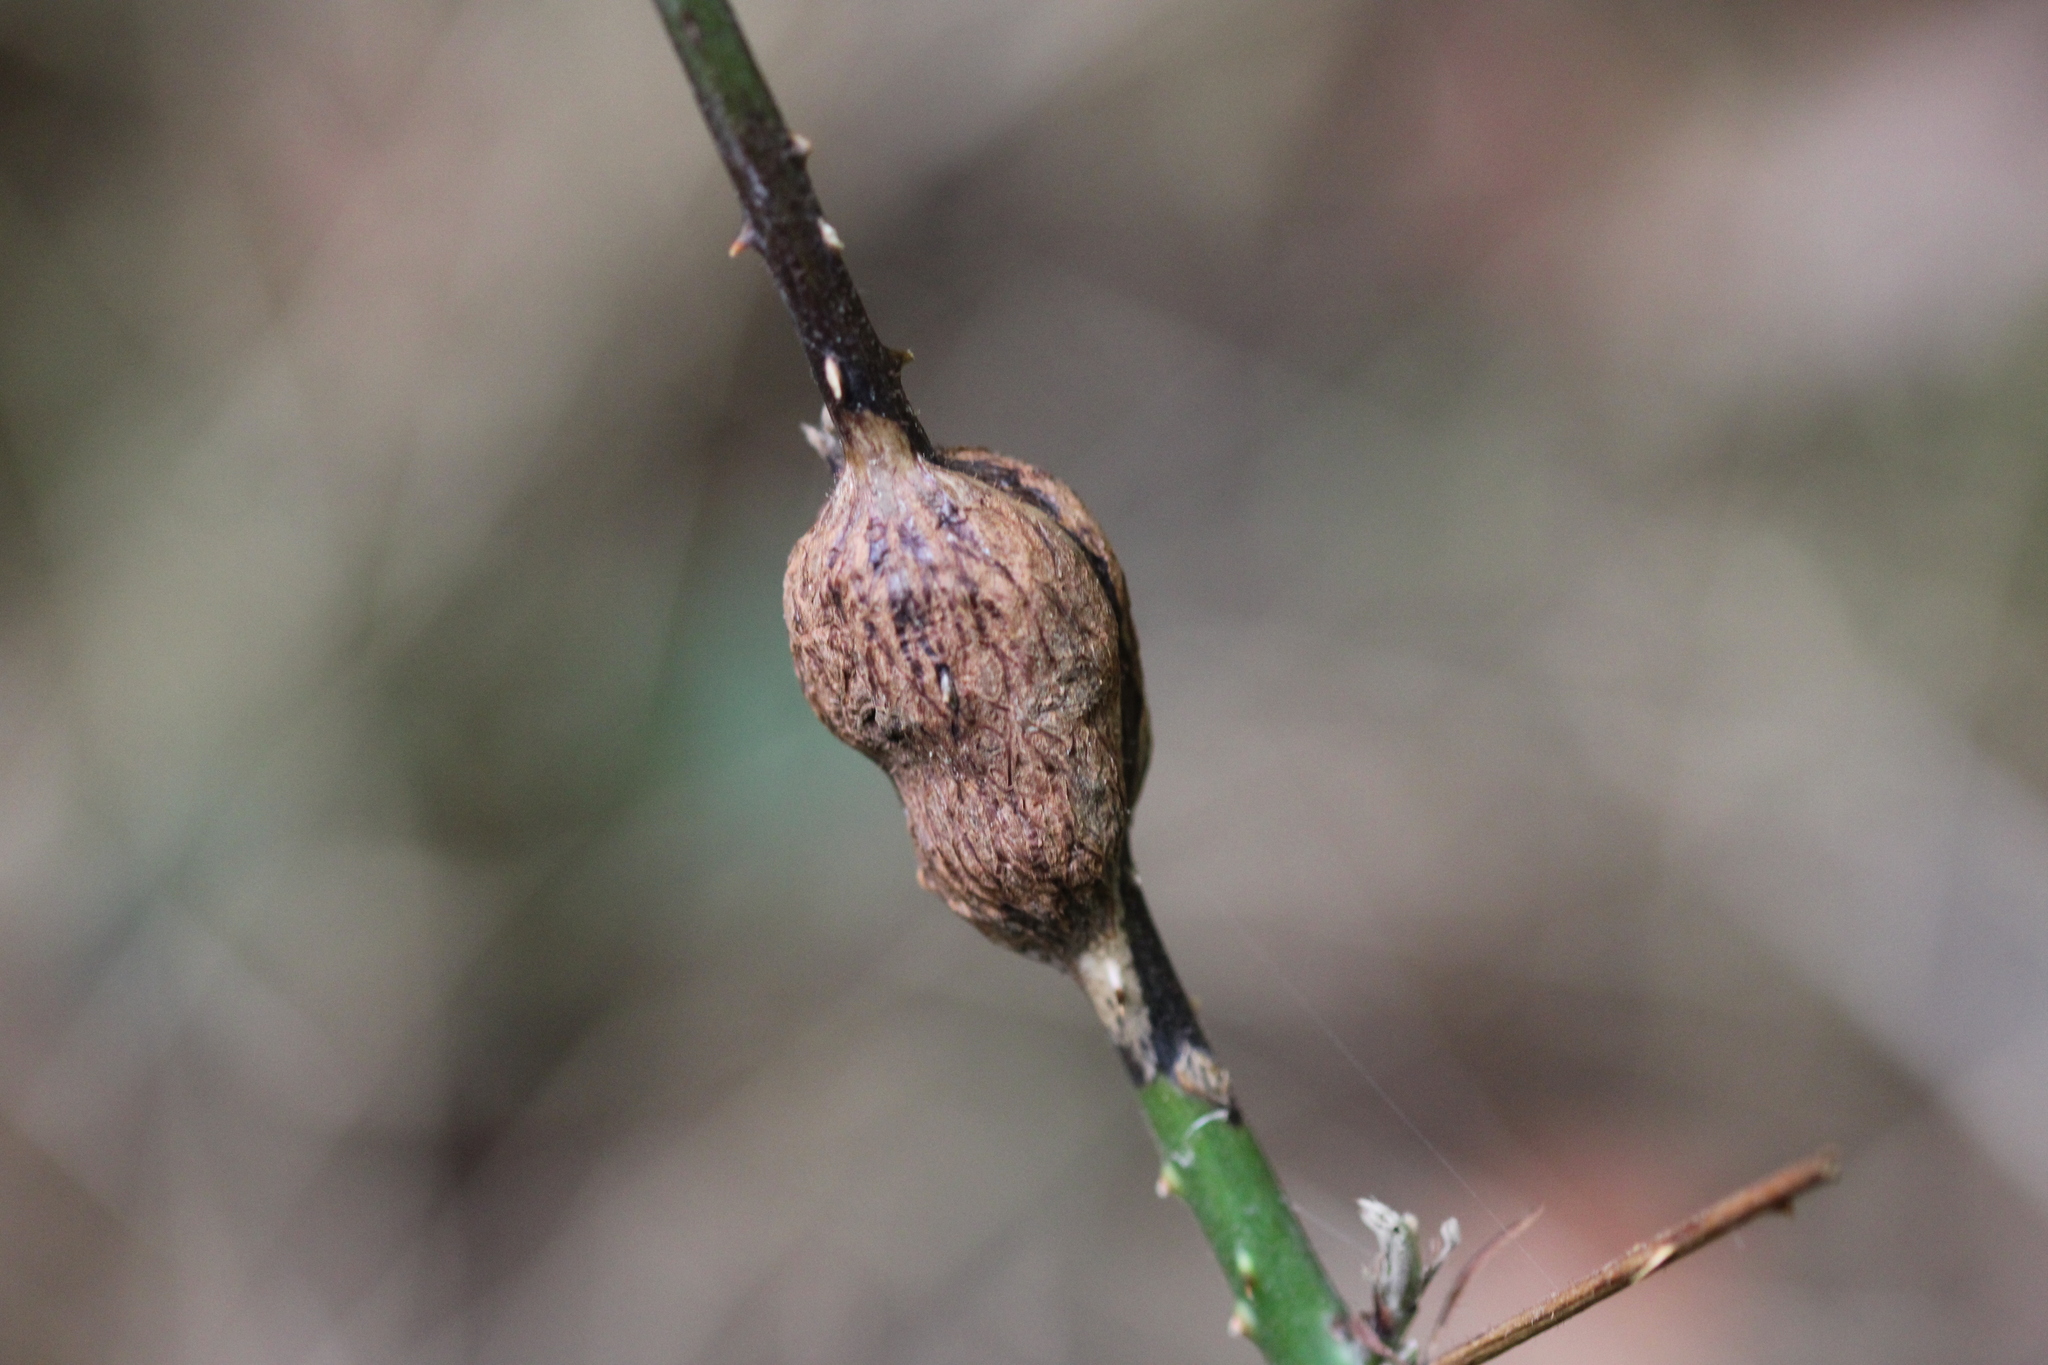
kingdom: Animalia
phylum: Arthropoda
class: Insecta
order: Diptera
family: Cecidomyiidae
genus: Lasioptera
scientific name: Lasioptera rubi
